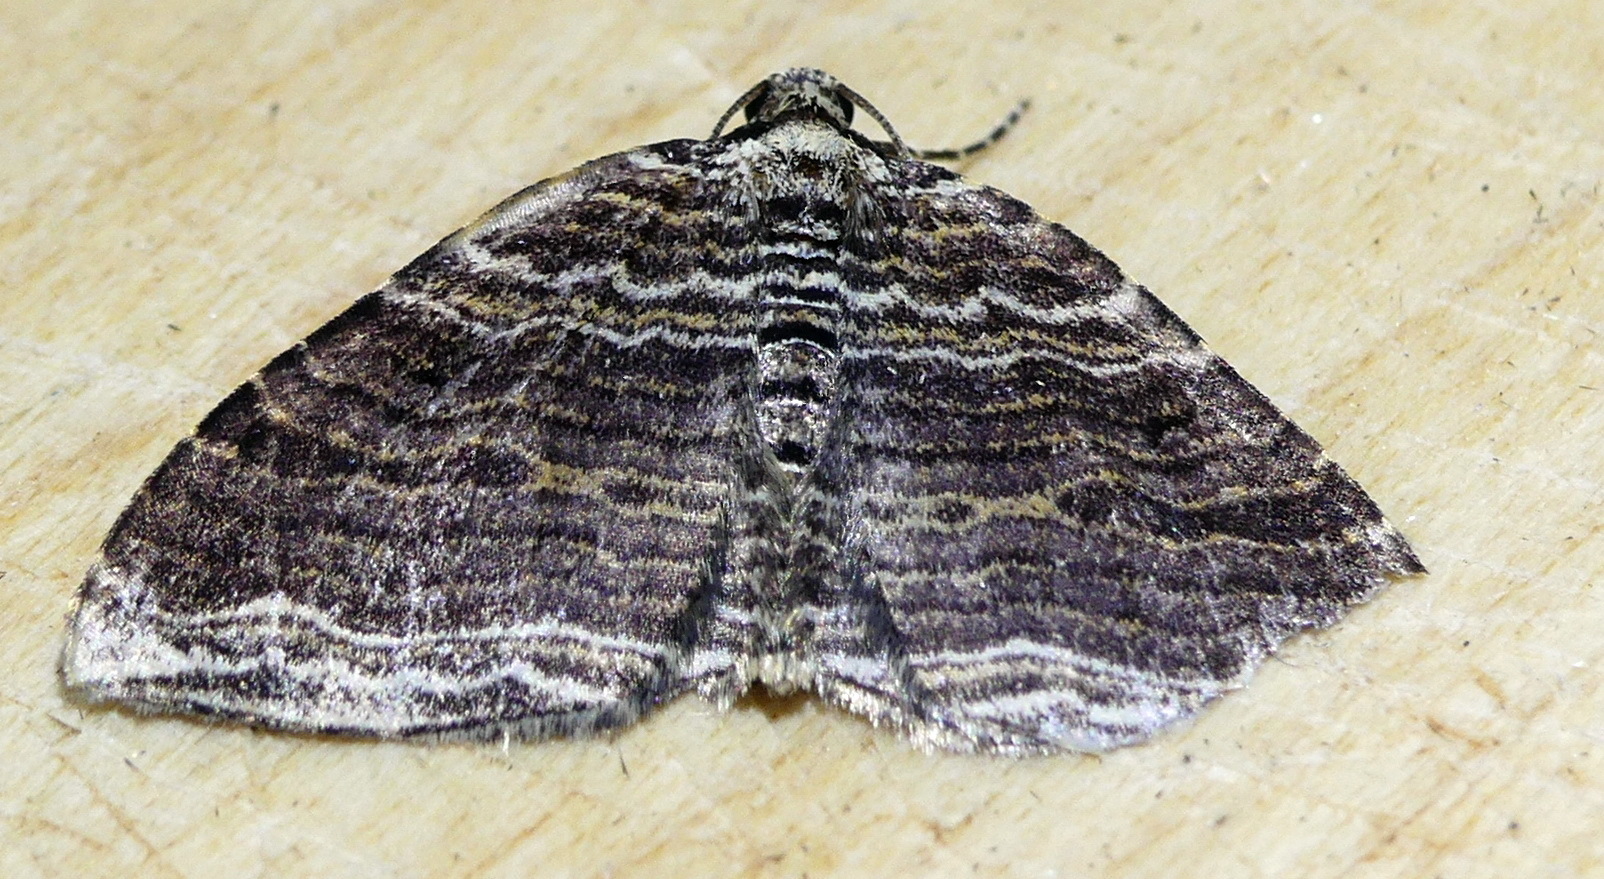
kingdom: Animalia
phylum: Arthropoda
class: Insecta
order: Lepidoptera
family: Geometridae
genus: Anticlea
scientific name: Anticlea multiferata
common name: Many-lined carpet
